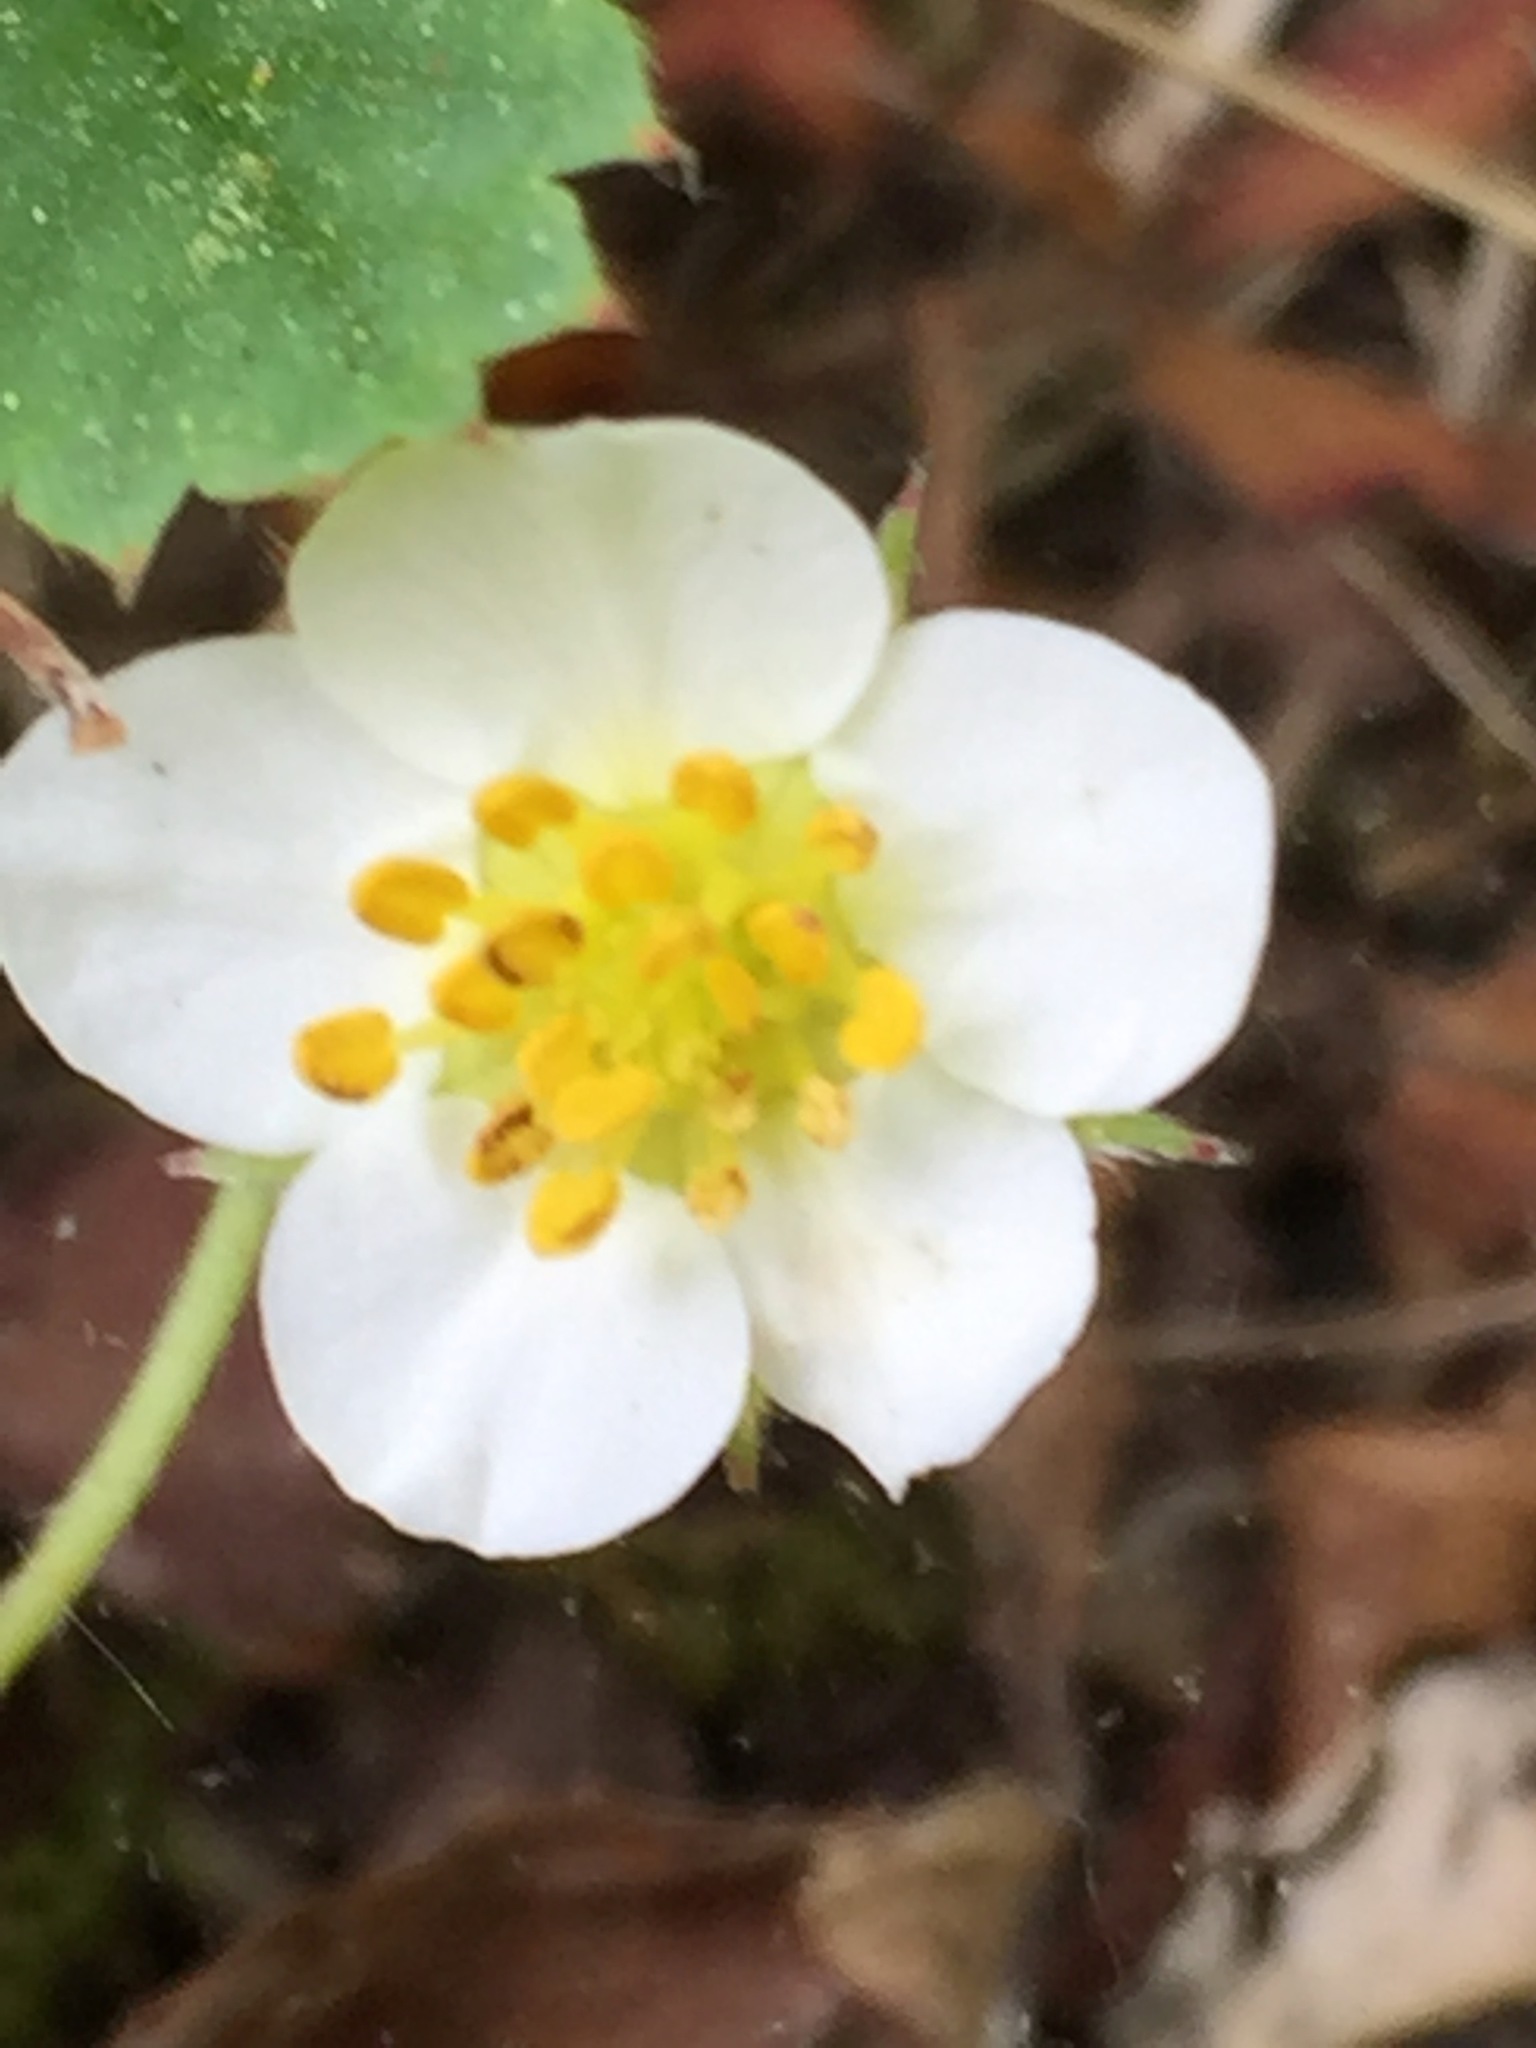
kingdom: Plantae
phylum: Tracheophyta
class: Magnoliopsida
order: Rosales
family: Rosaceae
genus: Fragaria
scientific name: Fragaria virginiana
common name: Thickleaved wild strawberry
